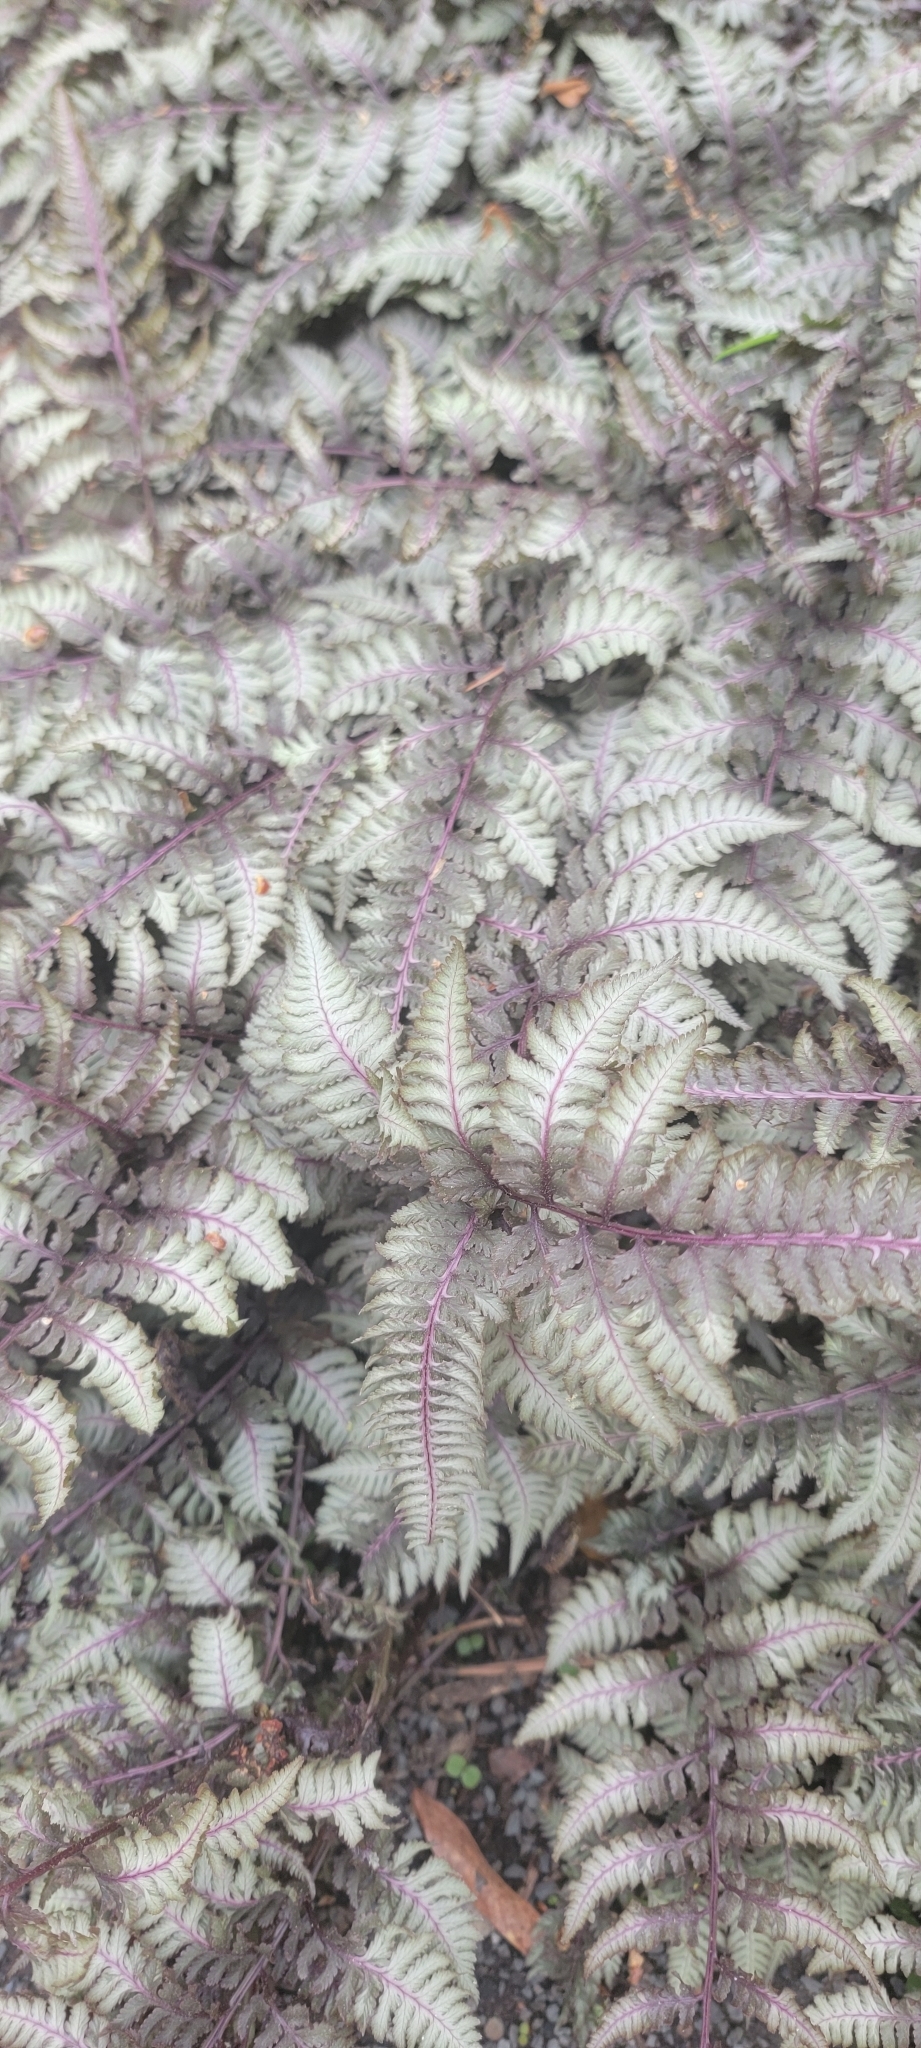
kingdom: Plantae
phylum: Tracheophyta
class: Polypodiopsida
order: Polypodiales
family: Athyriaceae
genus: Anisocampium
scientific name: Anisocampium niponicum
